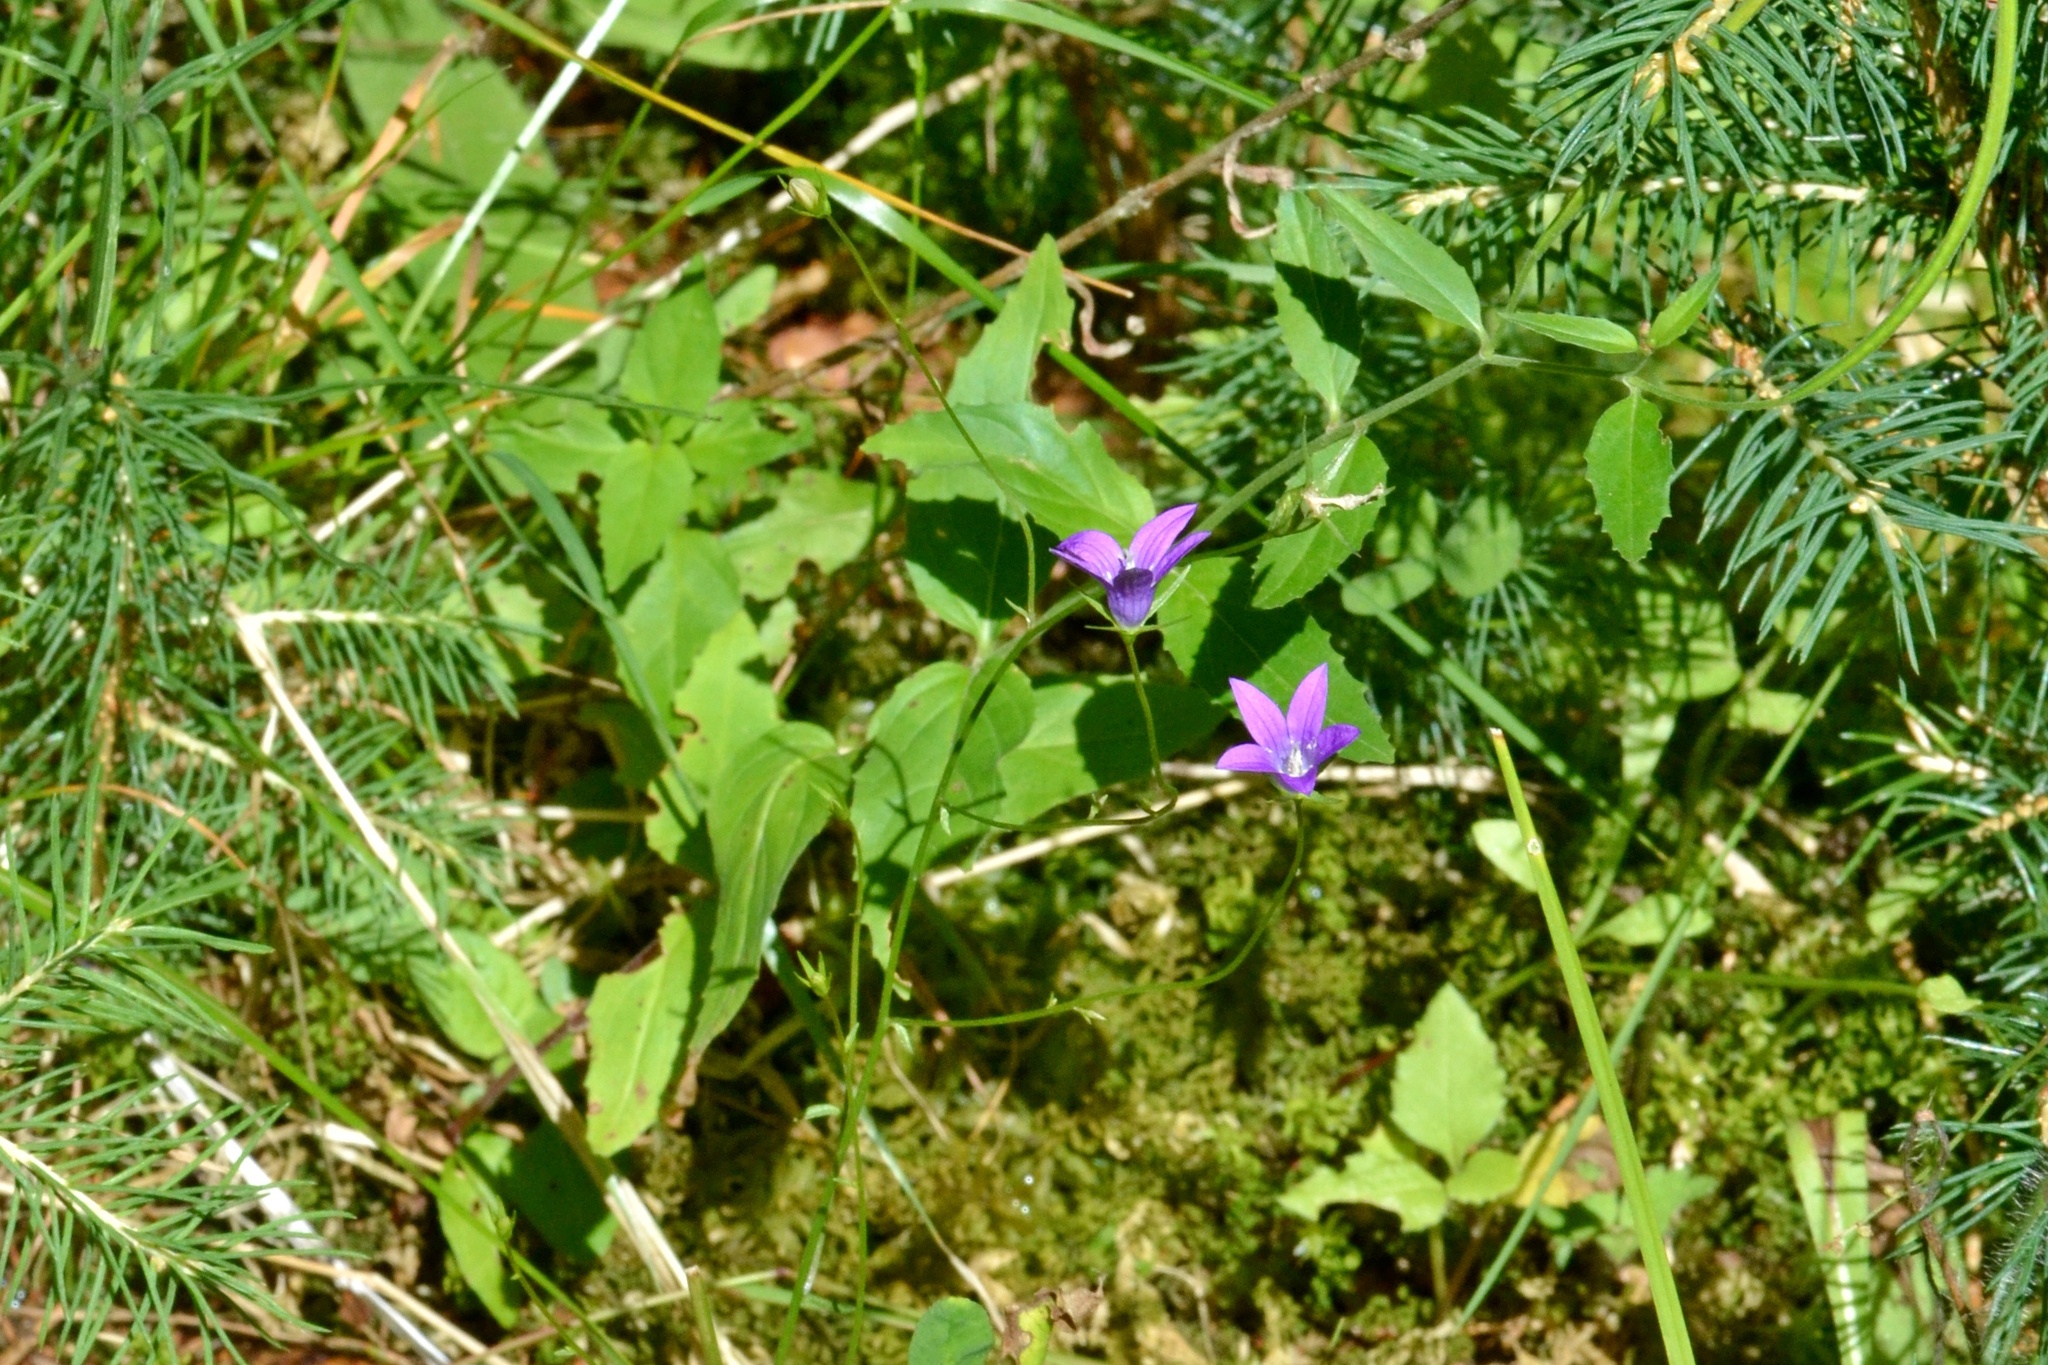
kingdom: Plantae
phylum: Tracheophyta
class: Magnoliopsida
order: Asterales
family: Campanulaceae
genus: Campanula
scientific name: Campanula patula
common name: Spreading bellflower
